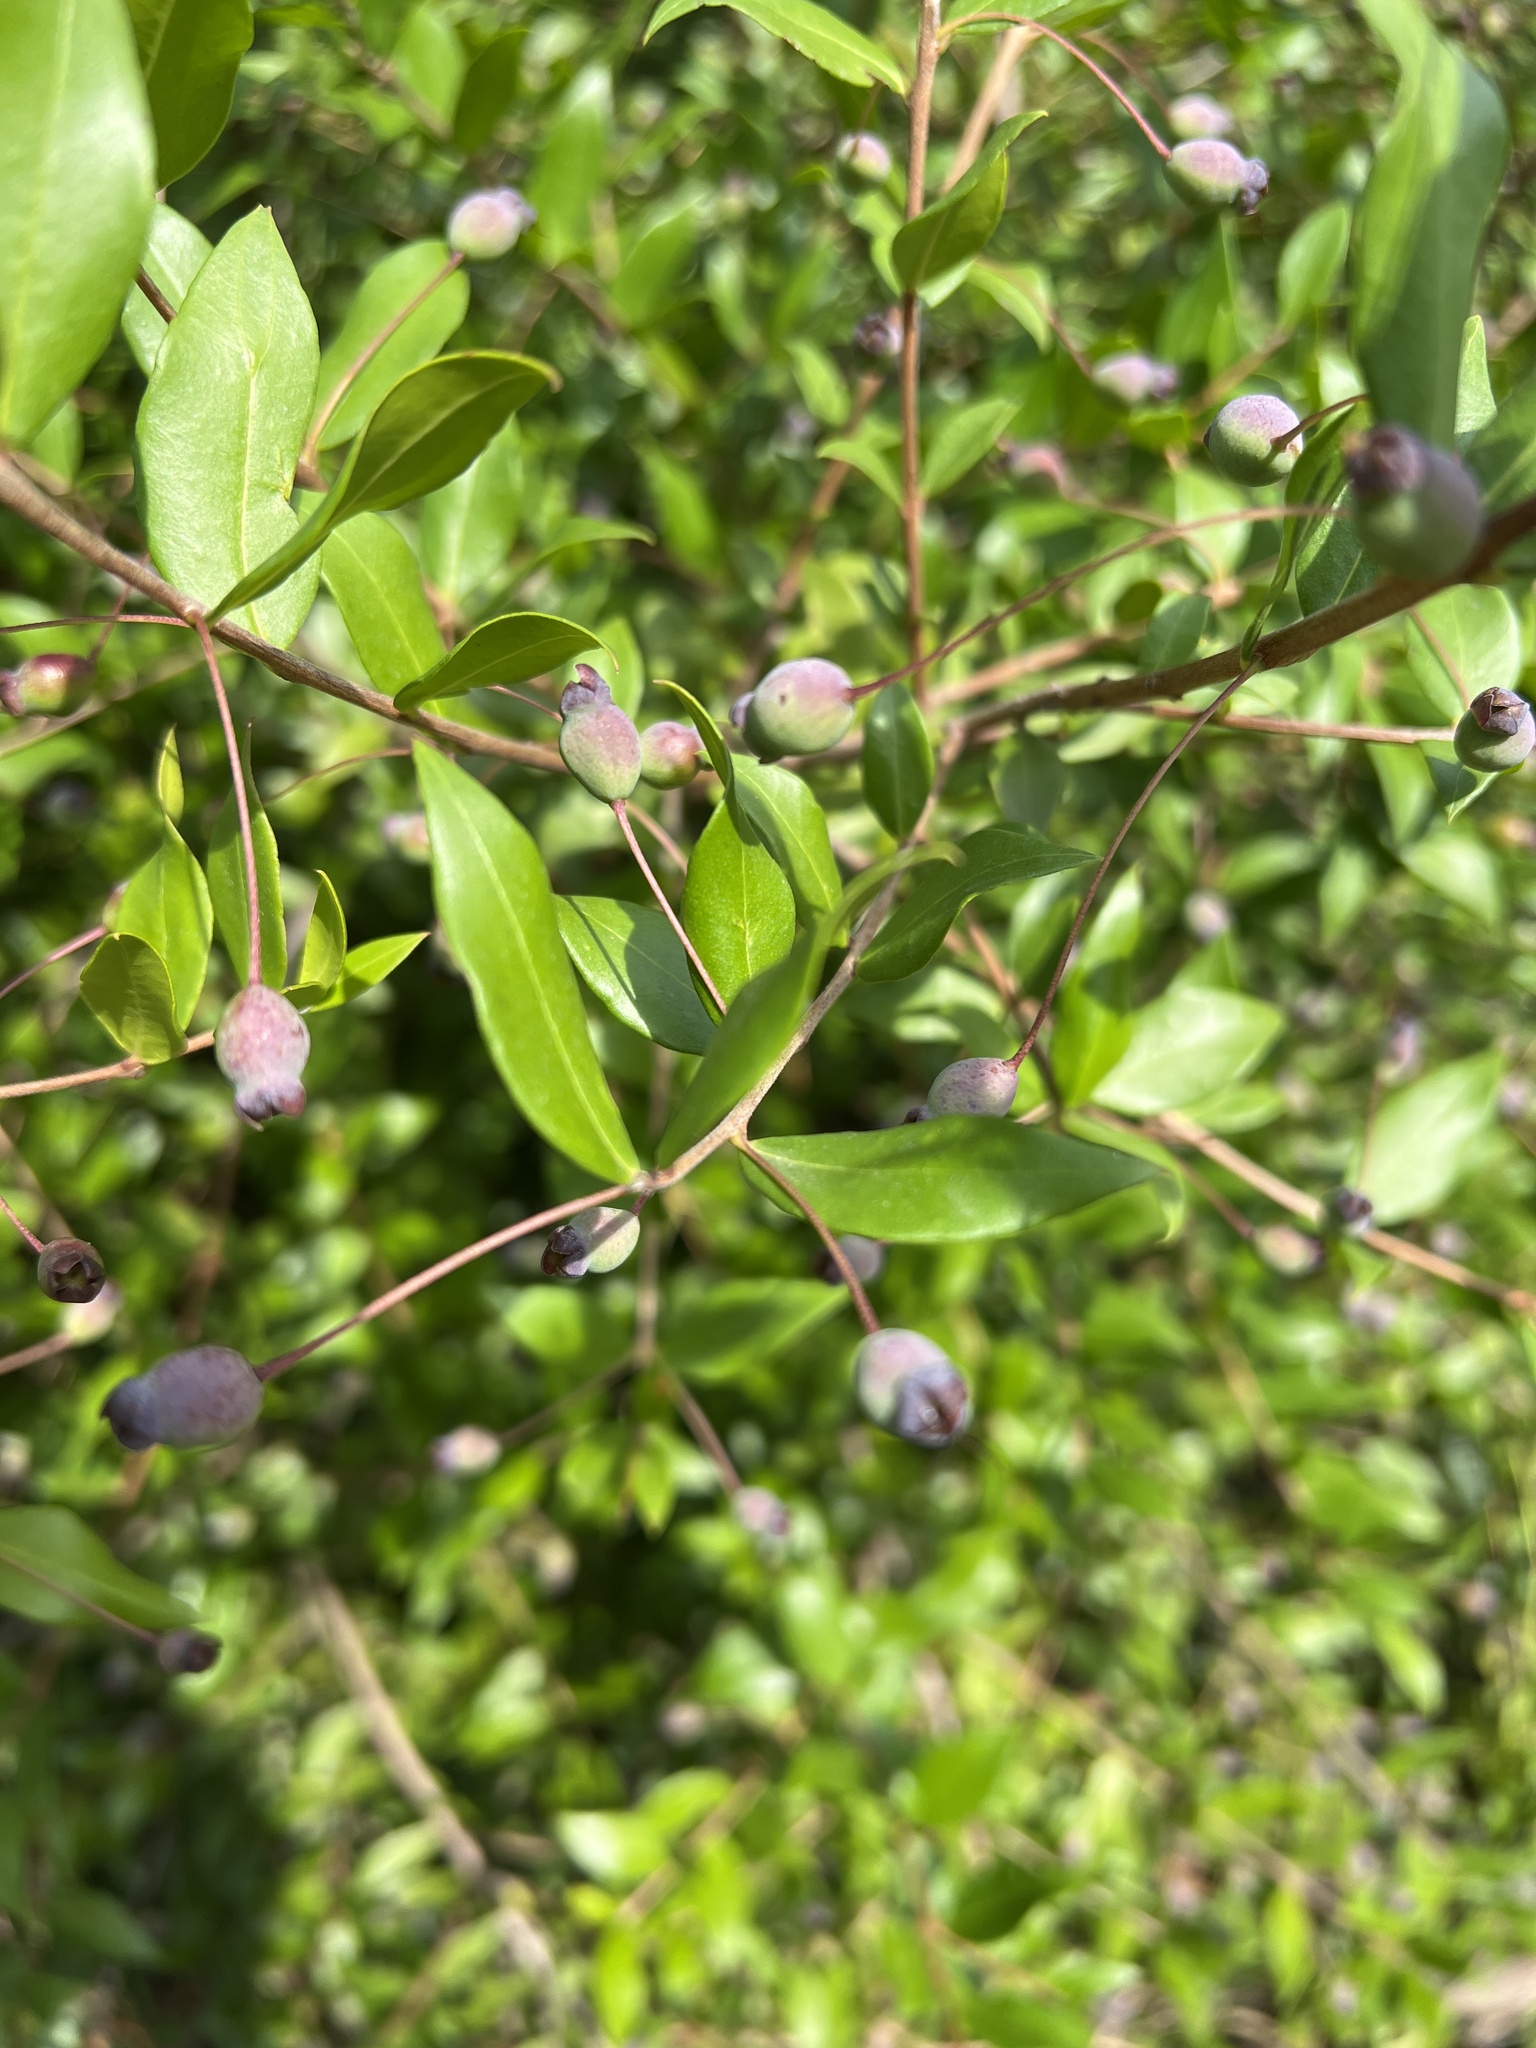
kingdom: Plantae
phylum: Tracheophyta
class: Magnoliopsida
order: Myrtales
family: Myrtaceae
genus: Myrtus
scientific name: Myrtus communis
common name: Myrtle
